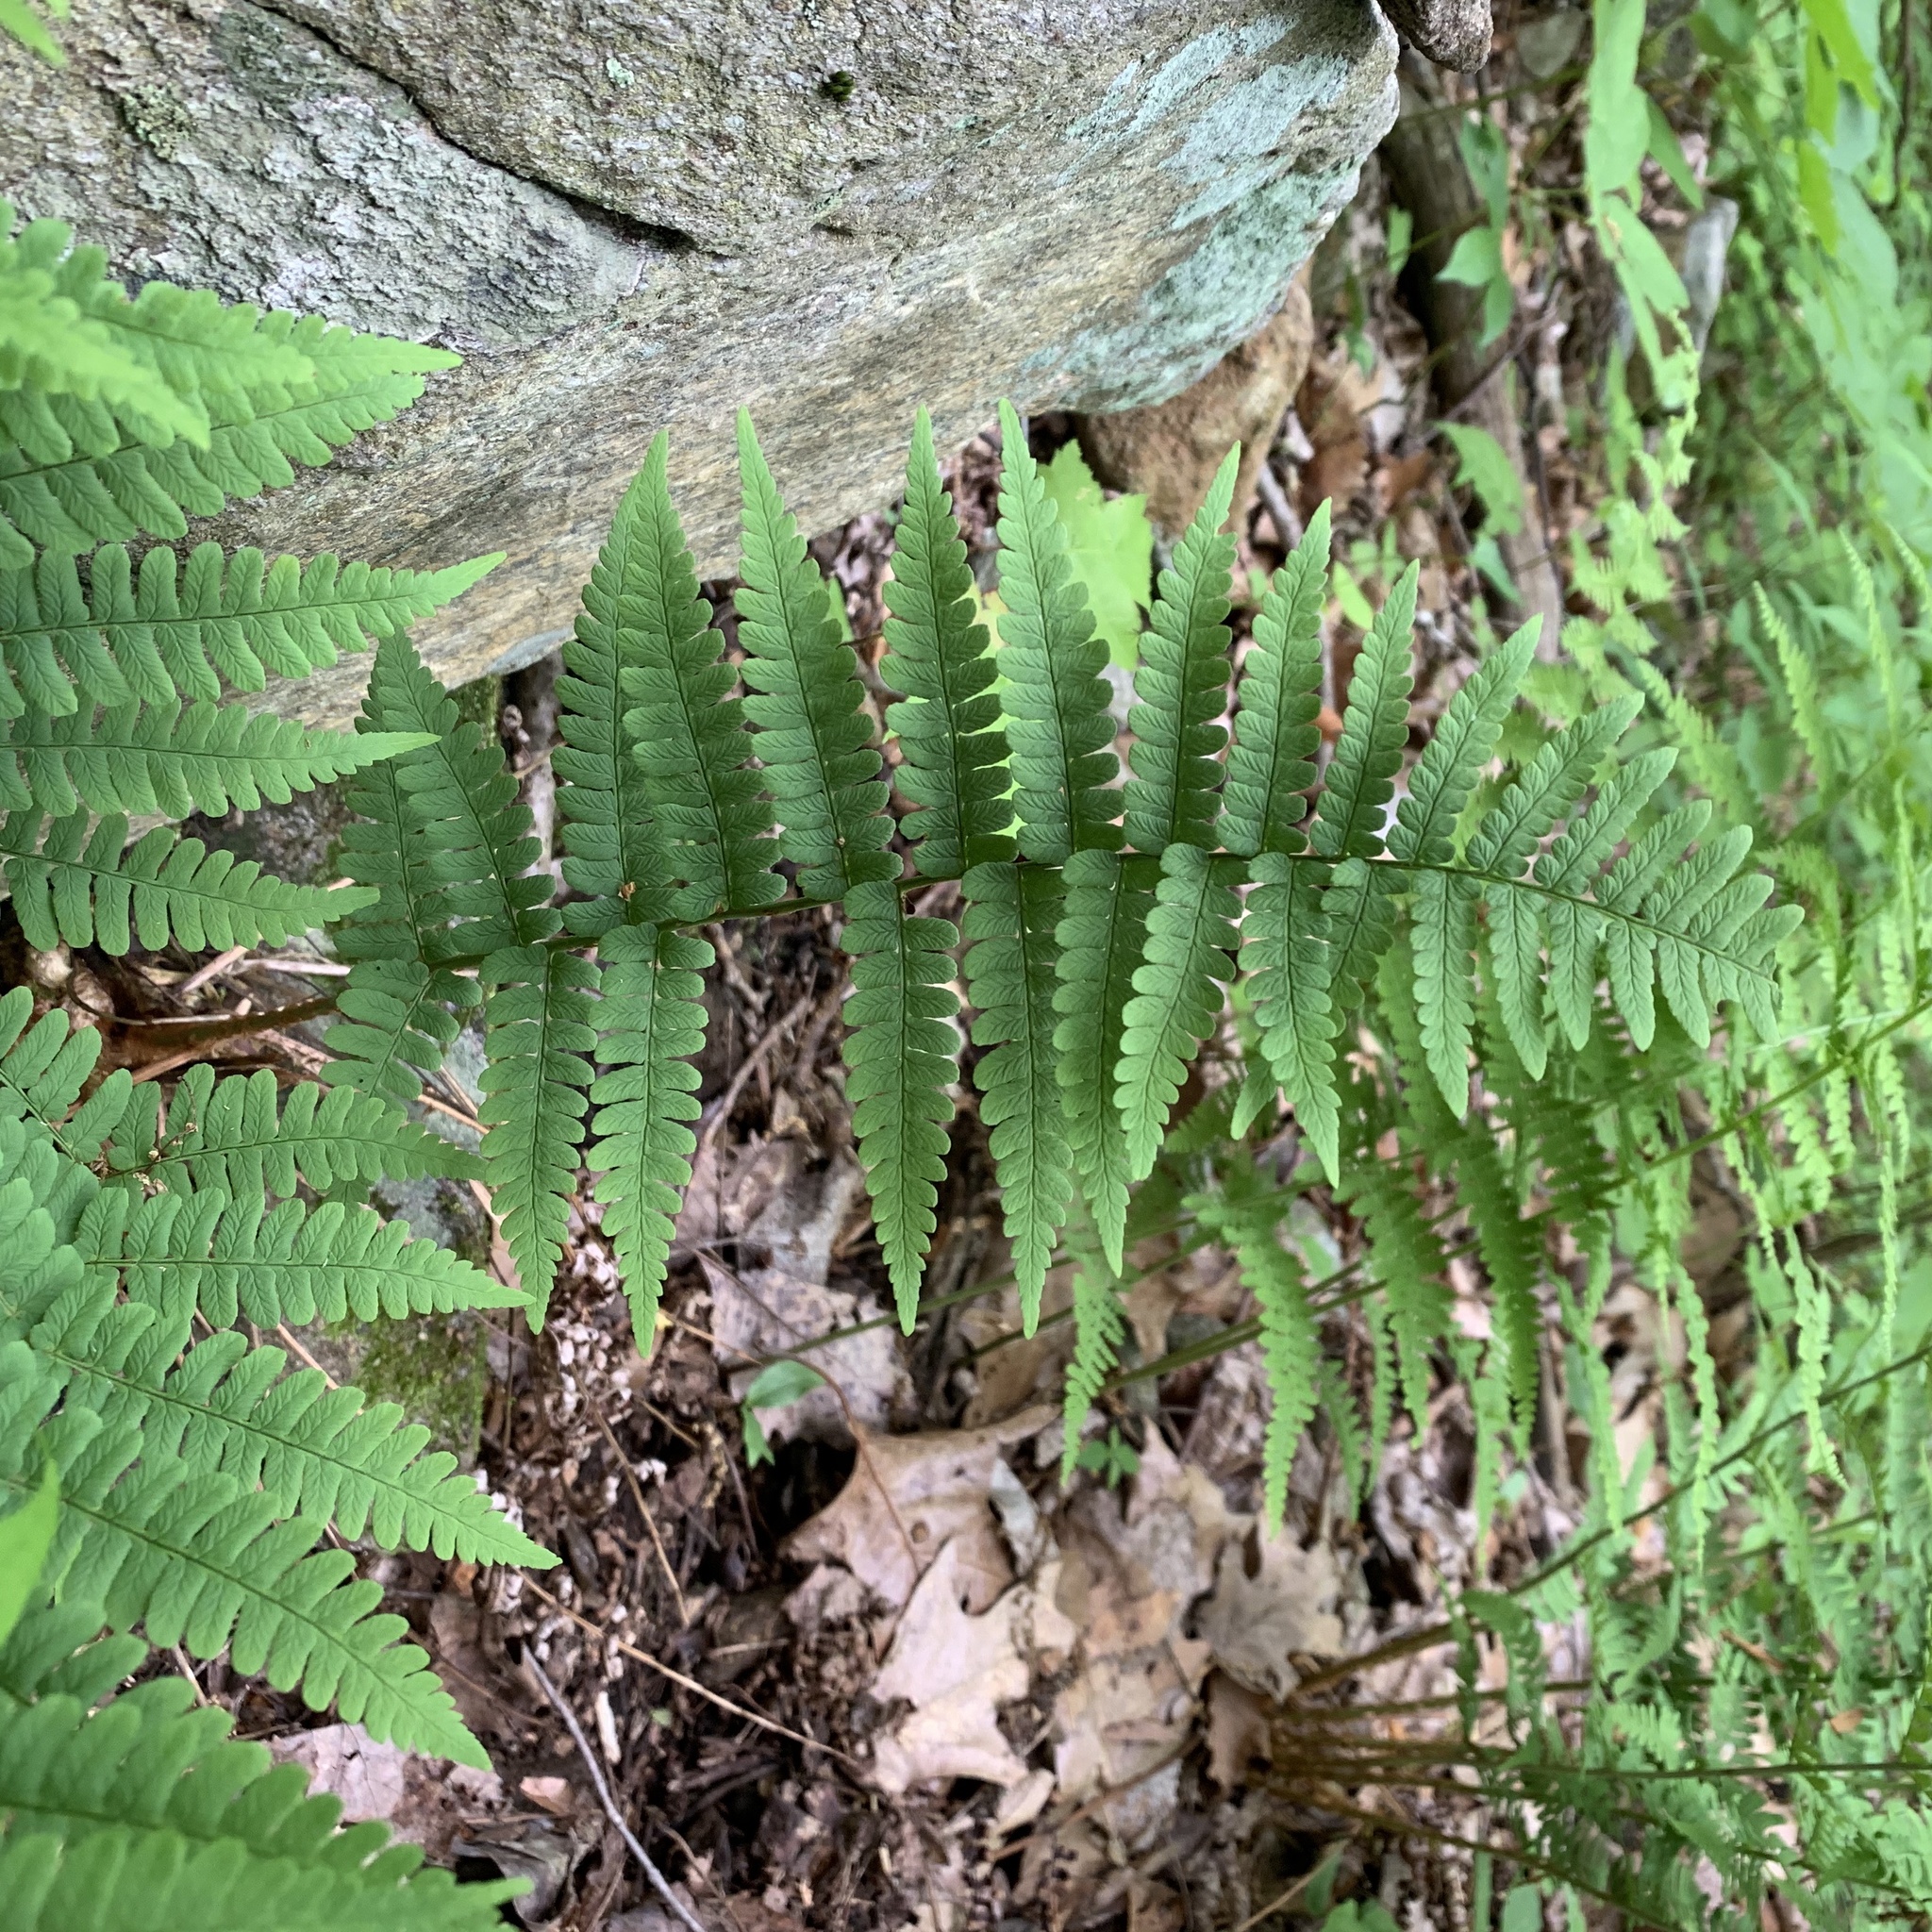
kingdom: Plantae
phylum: Tracheophyta
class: Polypodiopsida
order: Polypodiales
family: Dryopteridaceae
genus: Dryopteris
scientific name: Dryopteris marginalis
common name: Marginal wood fern
